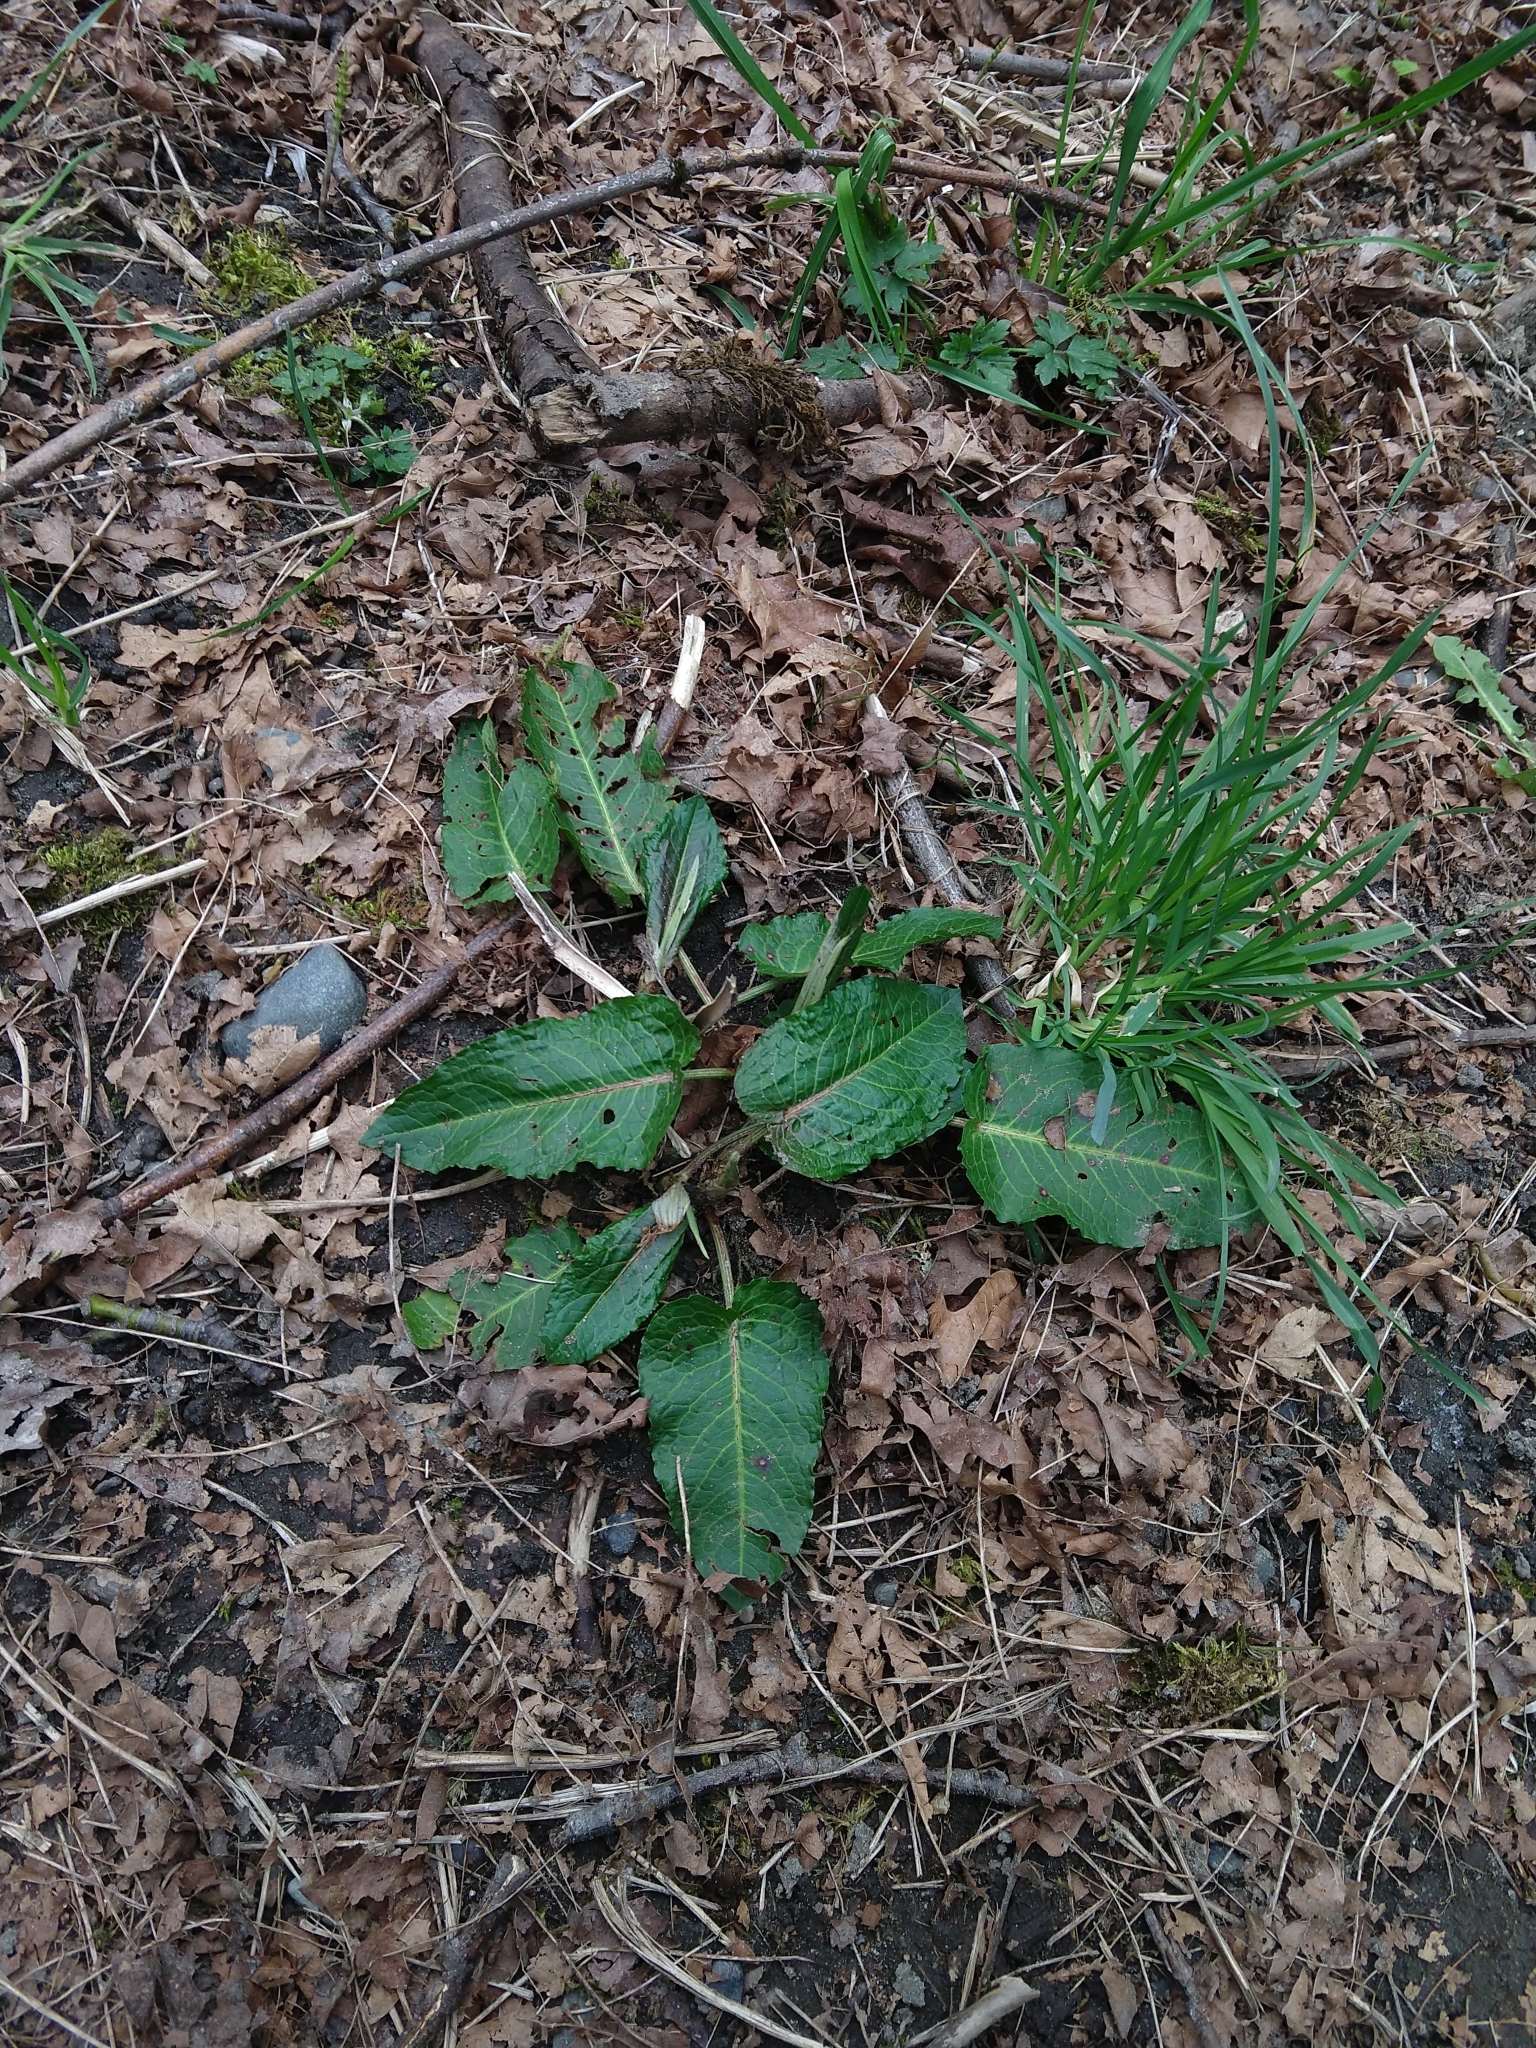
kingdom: Plantae
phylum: Tracheophyta
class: Magnoliopsida
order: Caryophyllales
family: Polygonaceae
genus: Rumex
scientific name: Rumex obtusifolius
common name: Bitter dock
